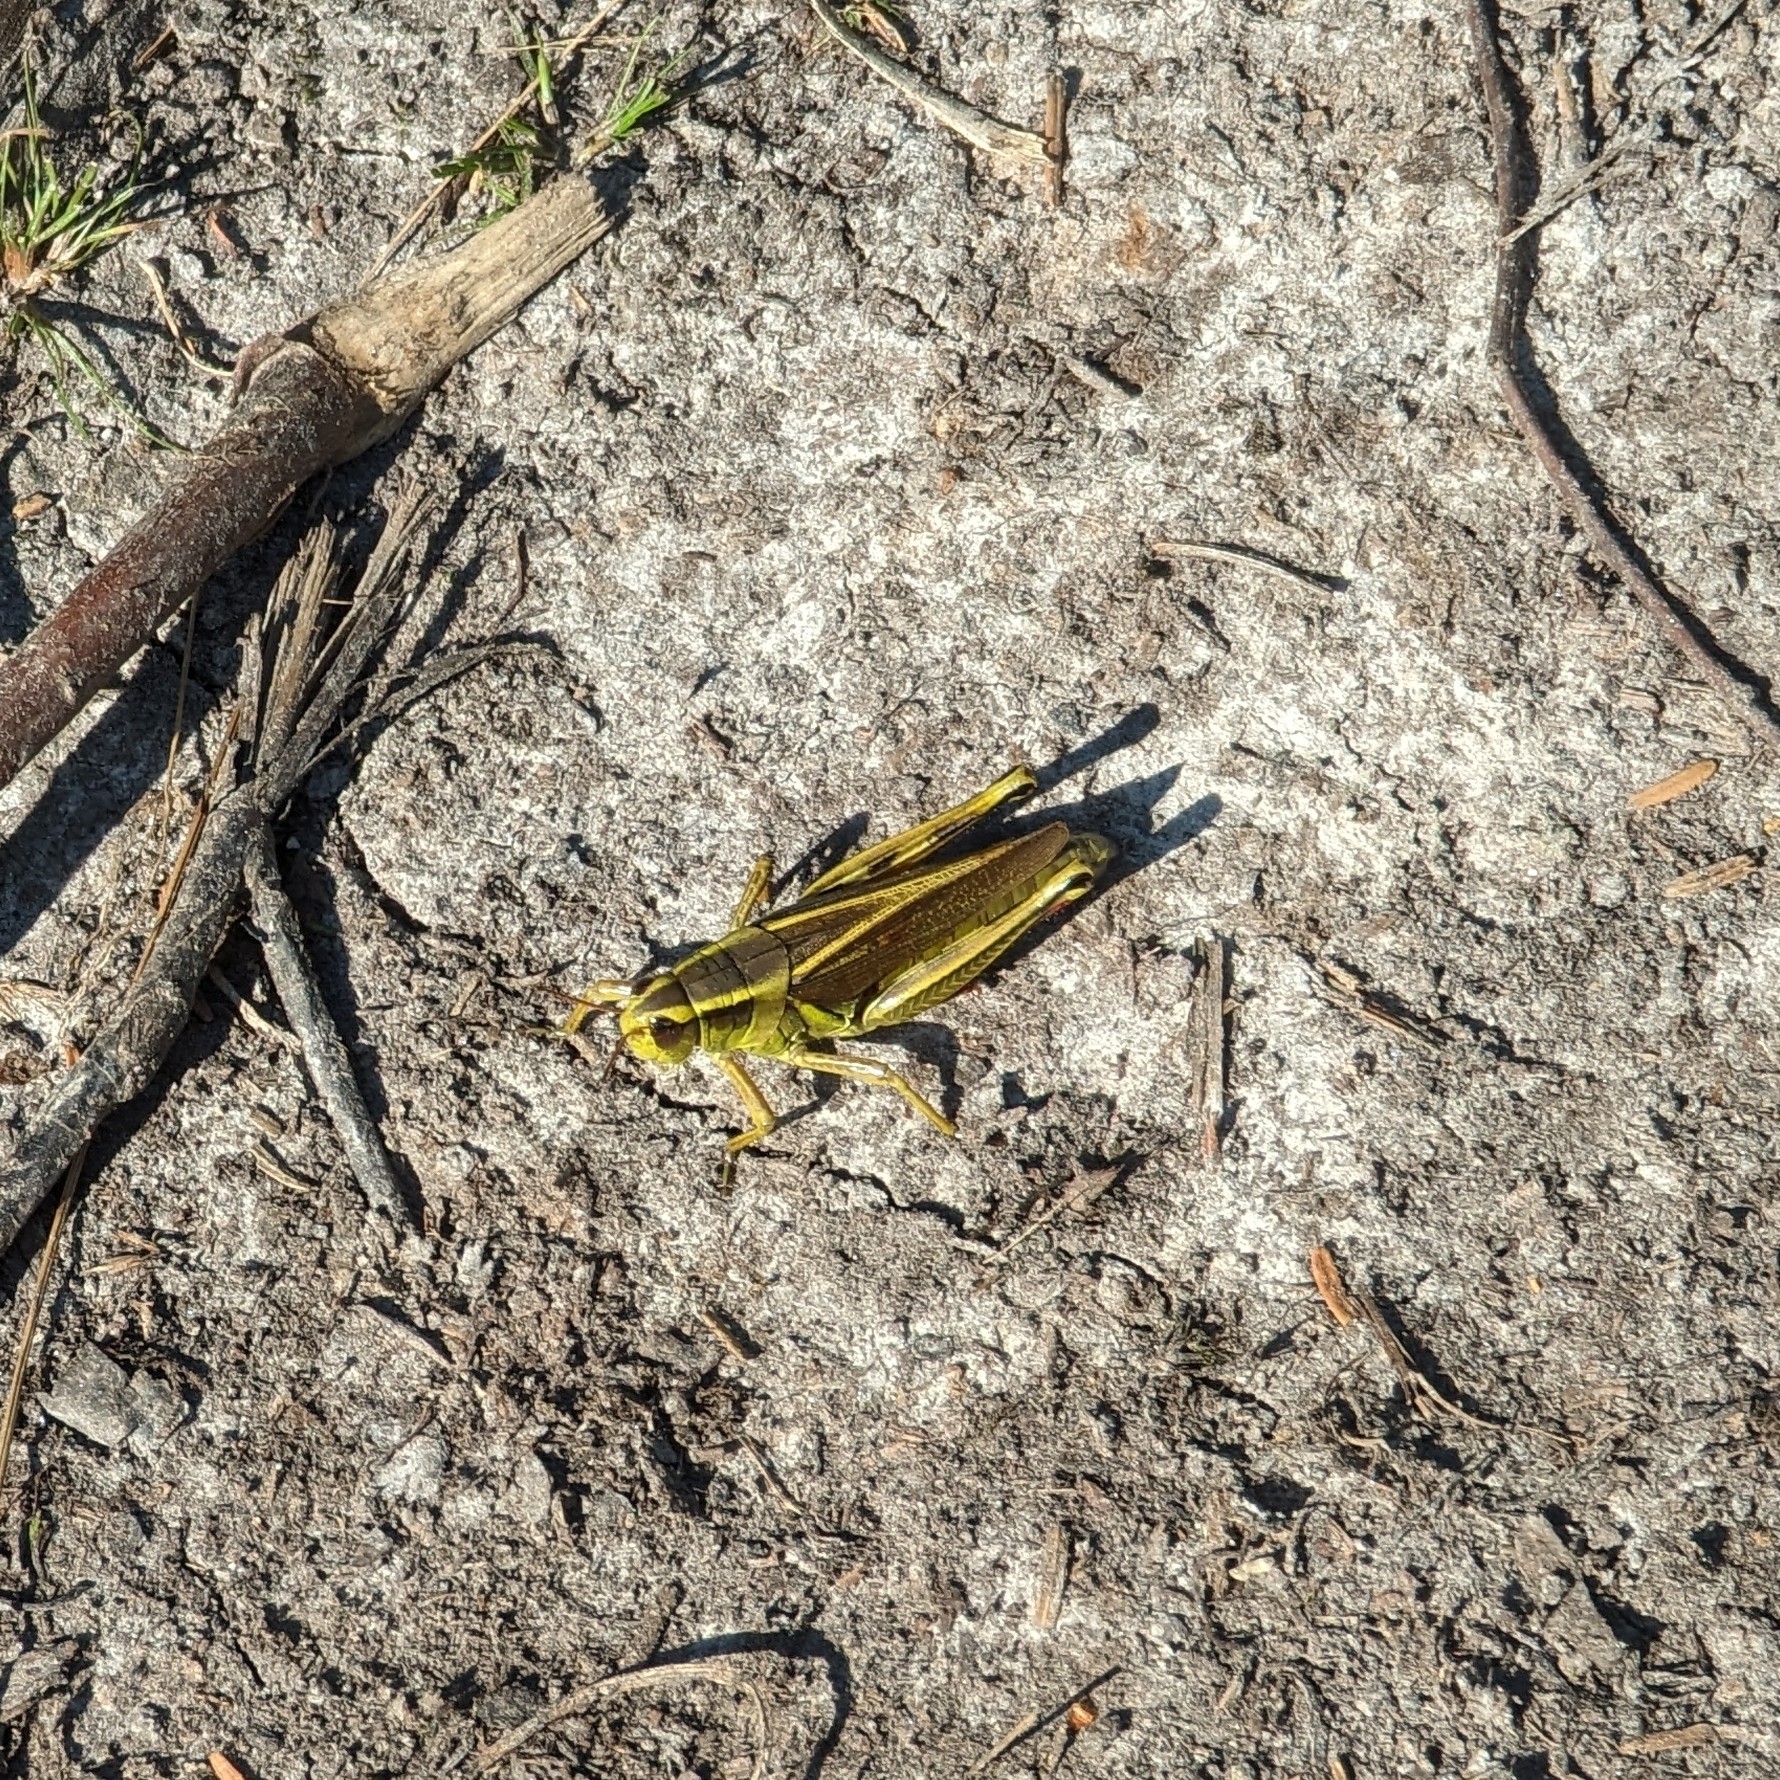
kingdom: Animalia
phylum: Arthropoda
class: Insecta
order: Orthoptera
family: Acrididae
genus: Melanoplus
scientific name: Melanoplus bivittatus
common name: Two-striped grasshopper
